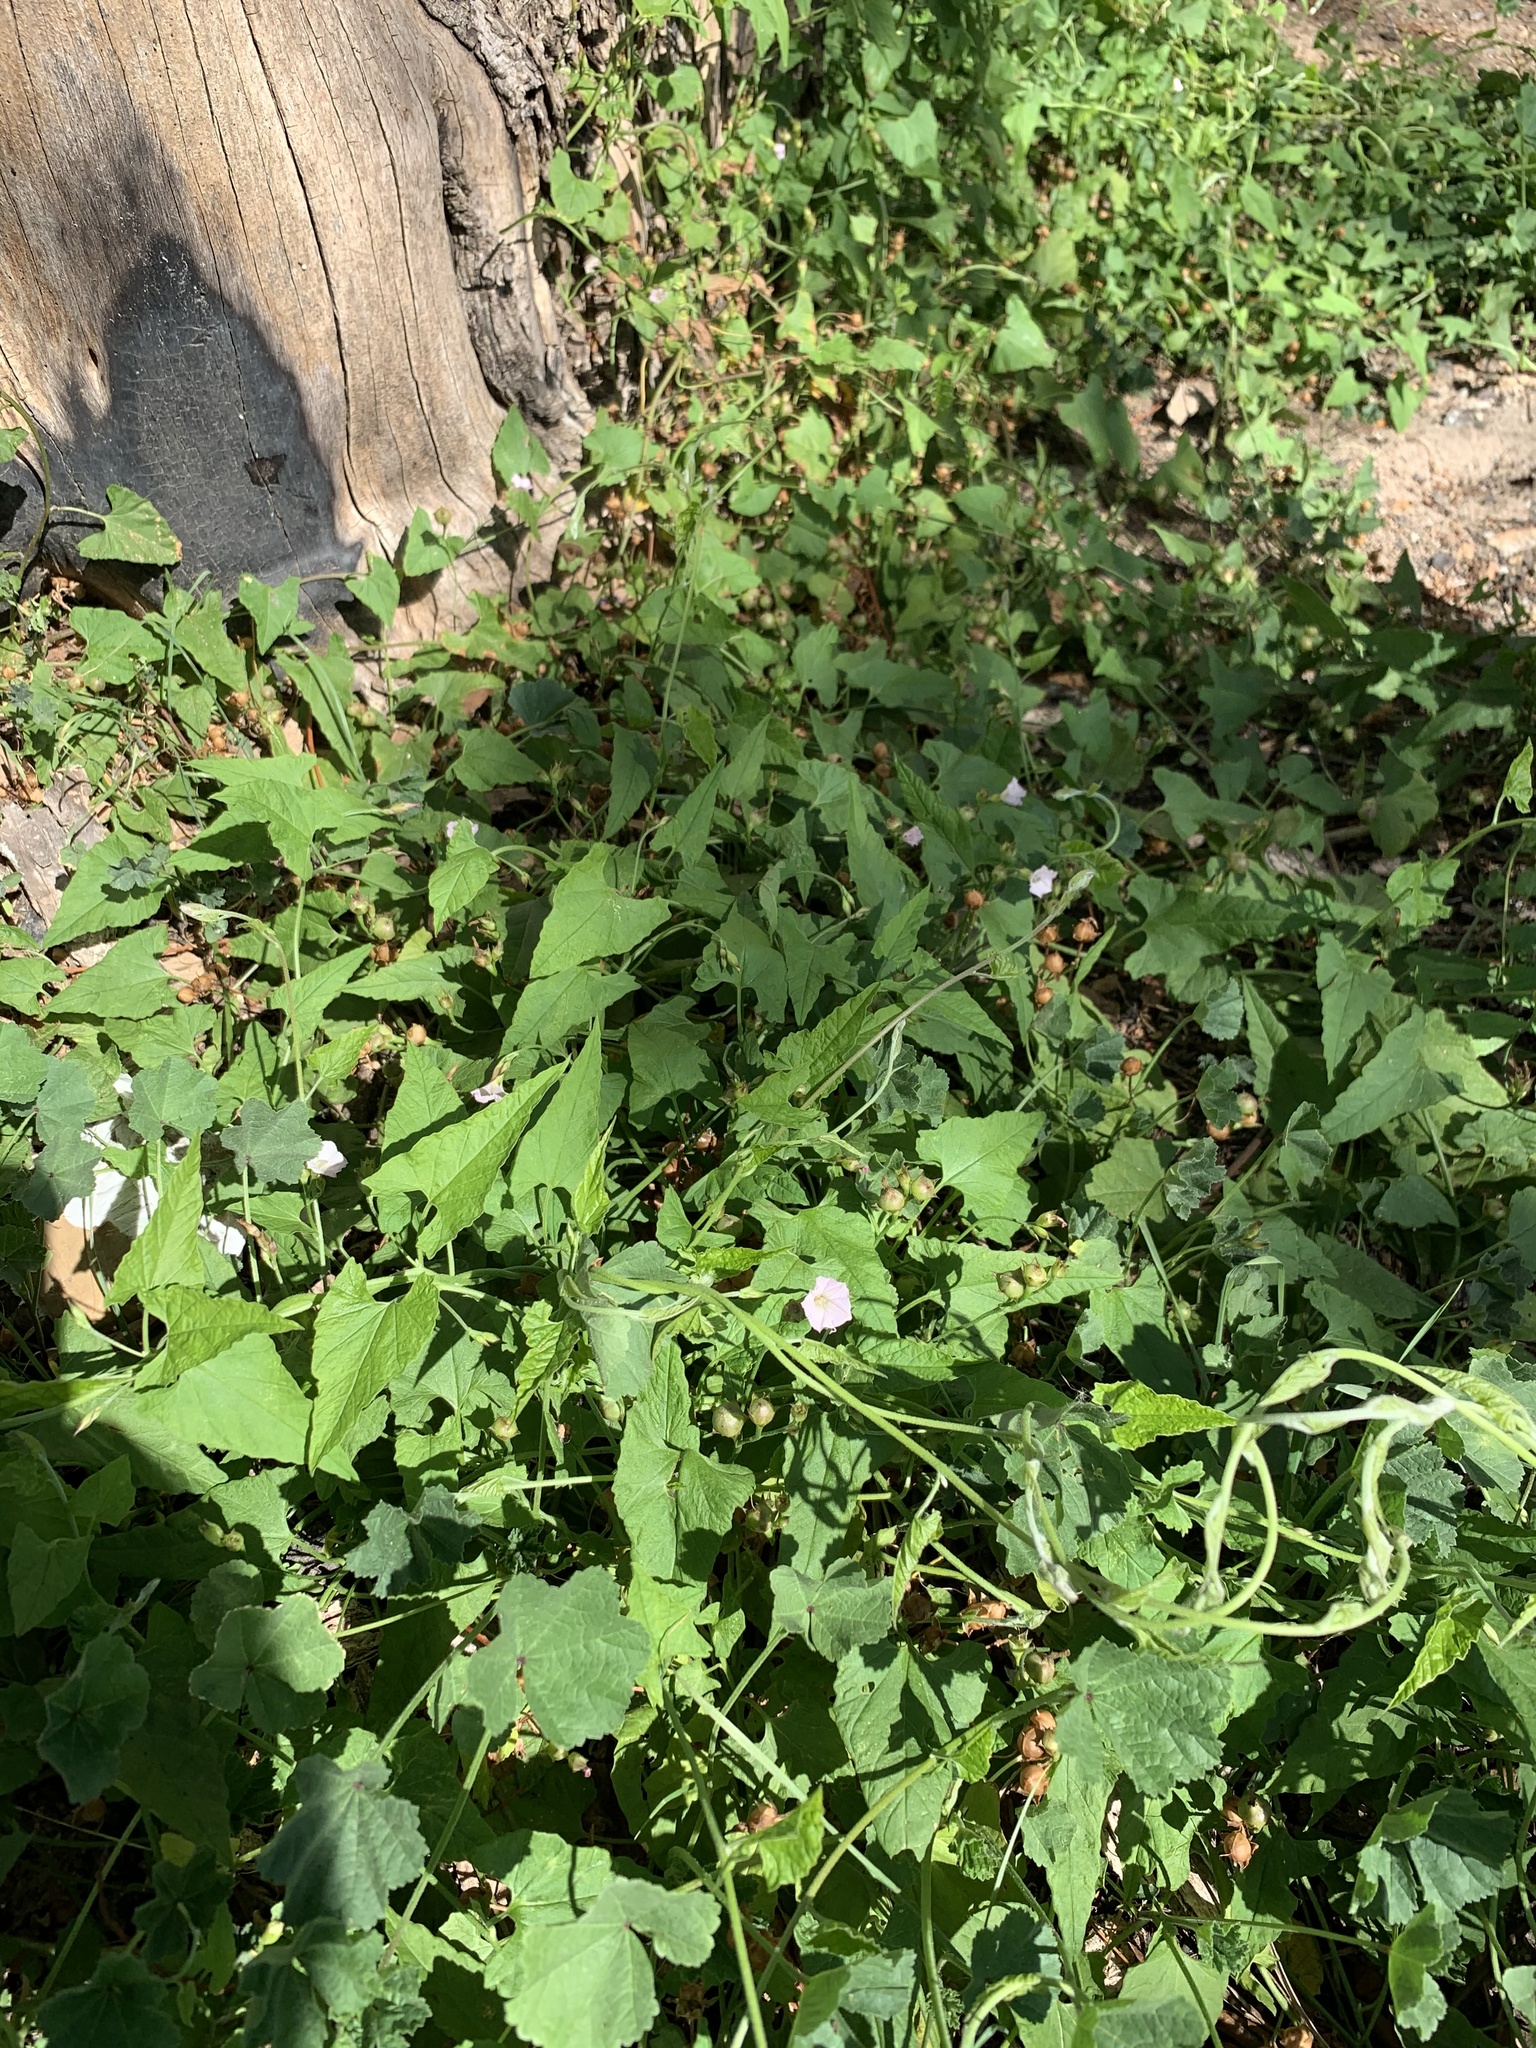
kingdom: Plantae
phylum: Tracheophyta
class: Magnoliopsida
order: Solanales
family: Convolvulaceae
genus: Convolvulus
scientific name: Convolvulus farinosus
